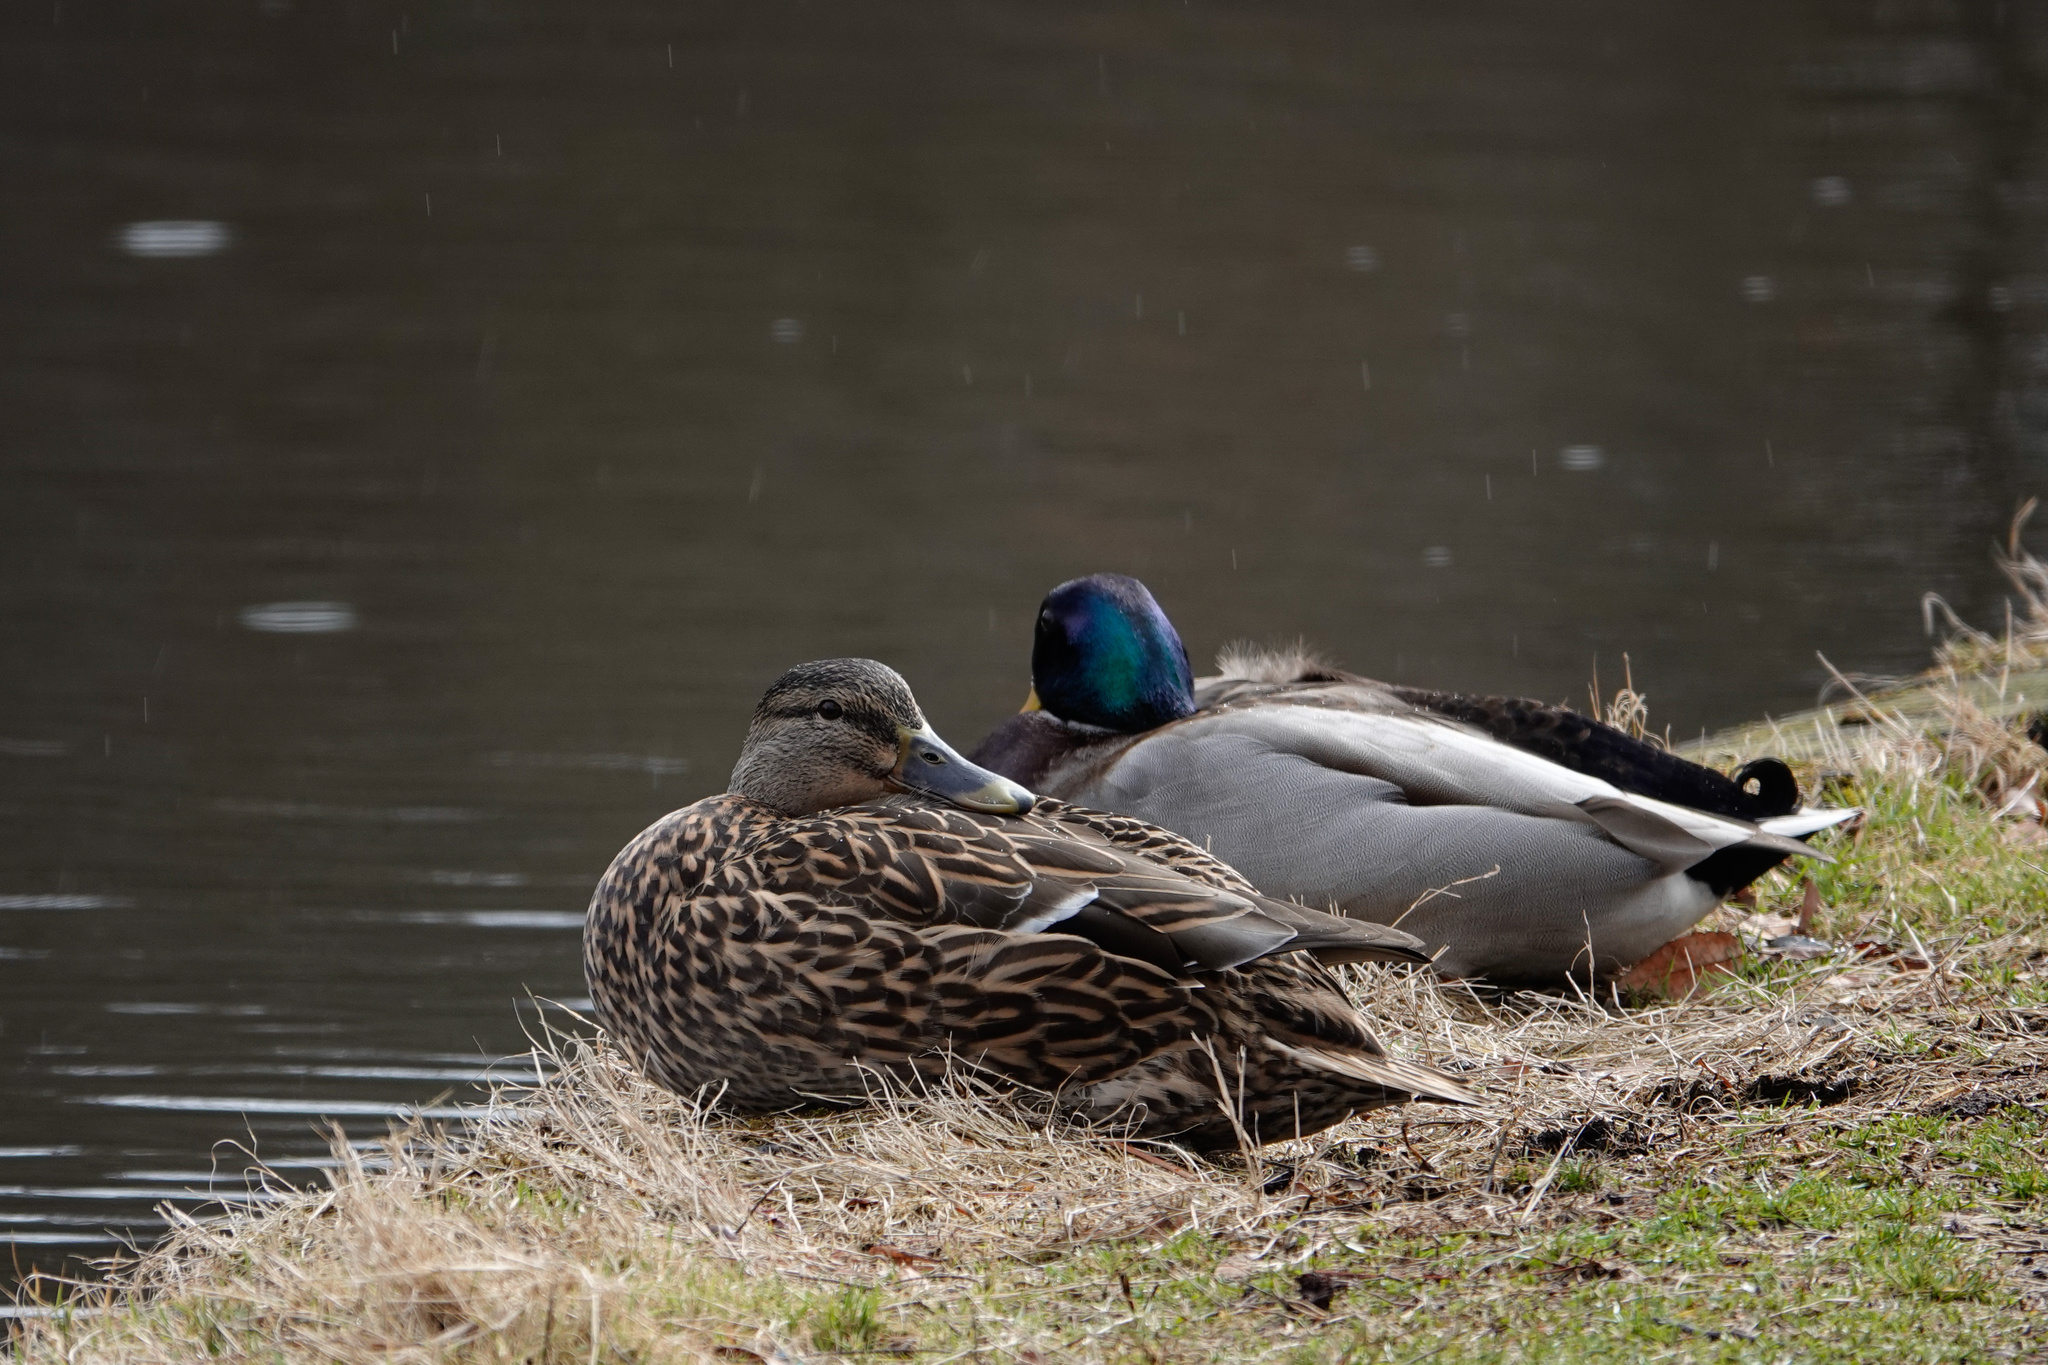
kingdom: Animalia
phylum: Chordata
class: Aves
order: Anseriformes
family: Anatidae
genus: Anas
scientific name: Anas platyrhynchos
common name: Mallard
